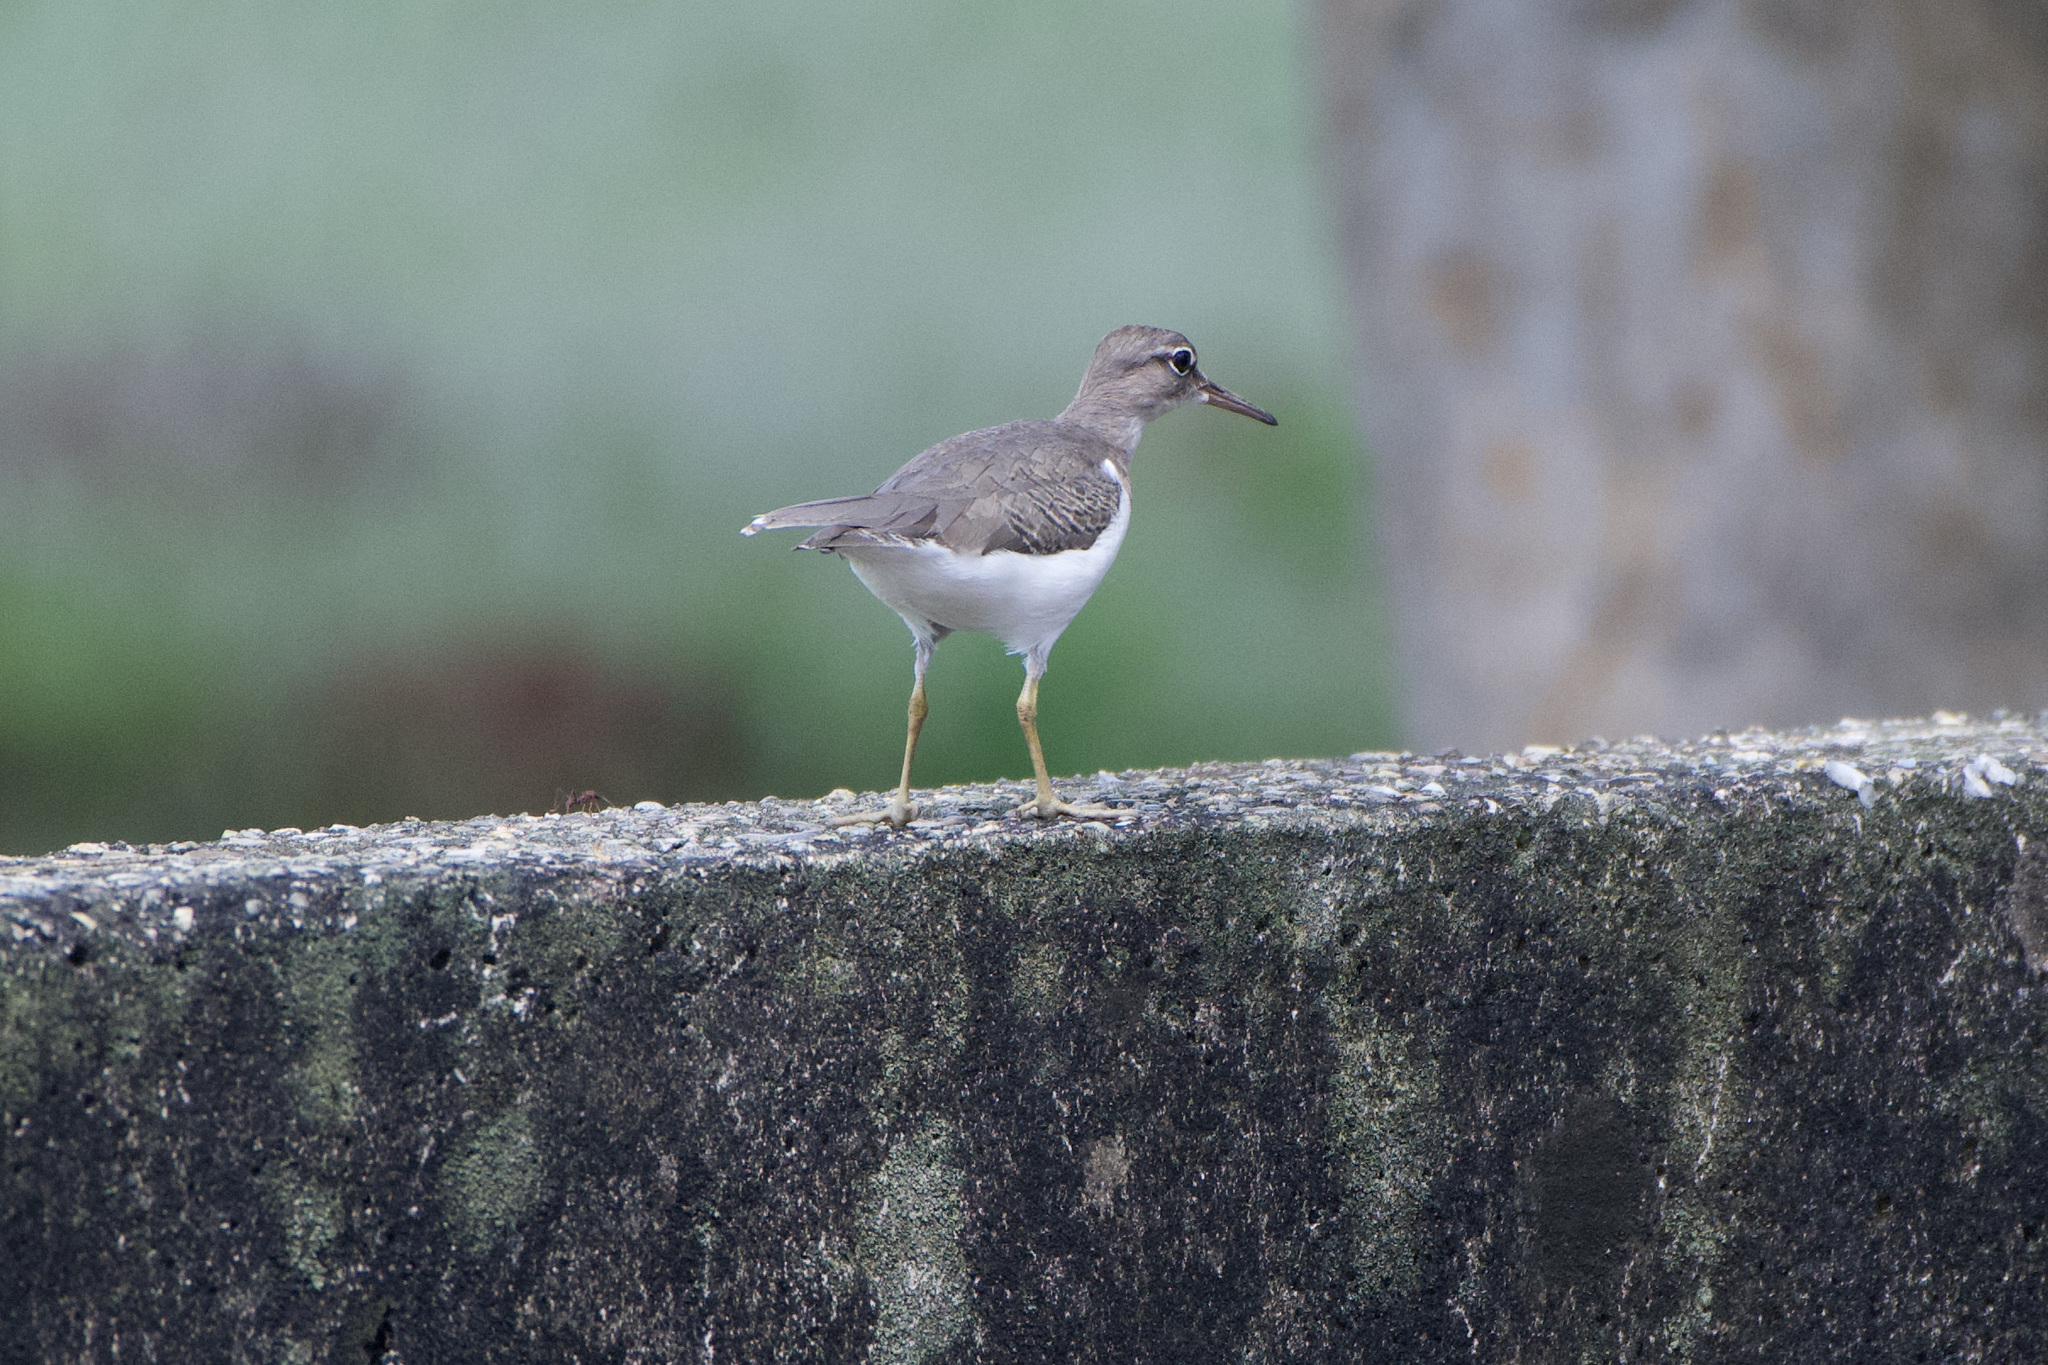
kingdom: Animalia
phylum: Chordata
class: Aves
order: Charadriiformes
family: Scolopacidae
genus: Actitis
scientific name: Actitis macularius
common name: Spotted sandpiper
